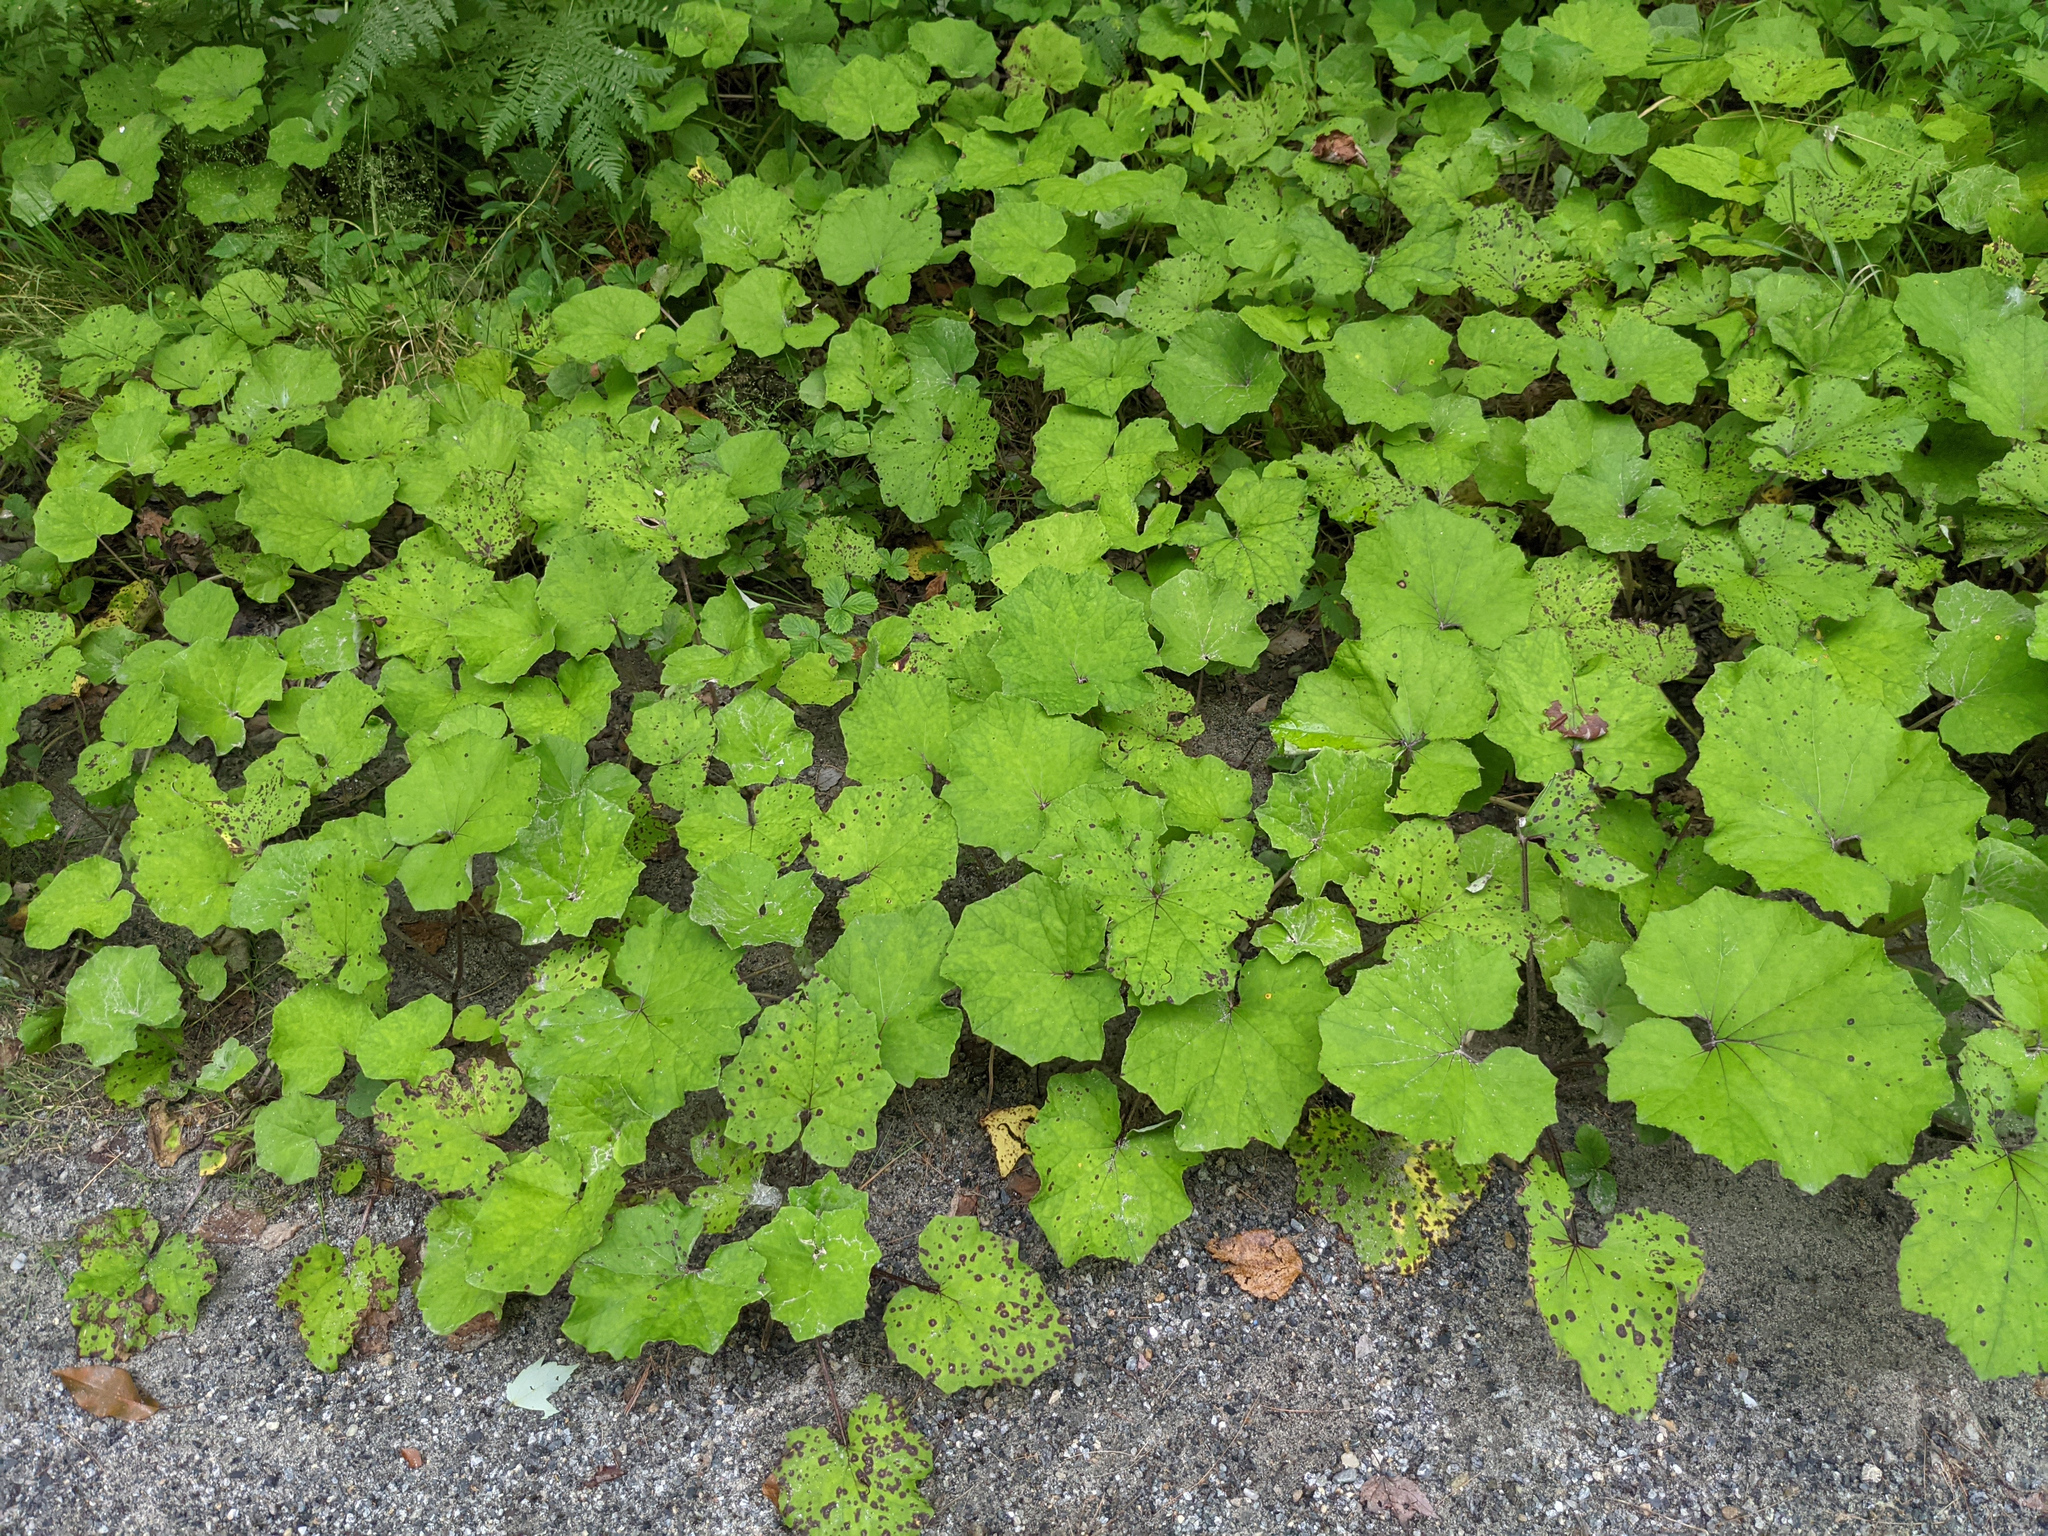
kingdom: Plantae
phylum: Tracheophyta
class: Magnoliopsida
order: Asterales
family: Asteraceae
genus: Tussilago
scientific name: Tussilago farfara
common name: Coltsfoot
